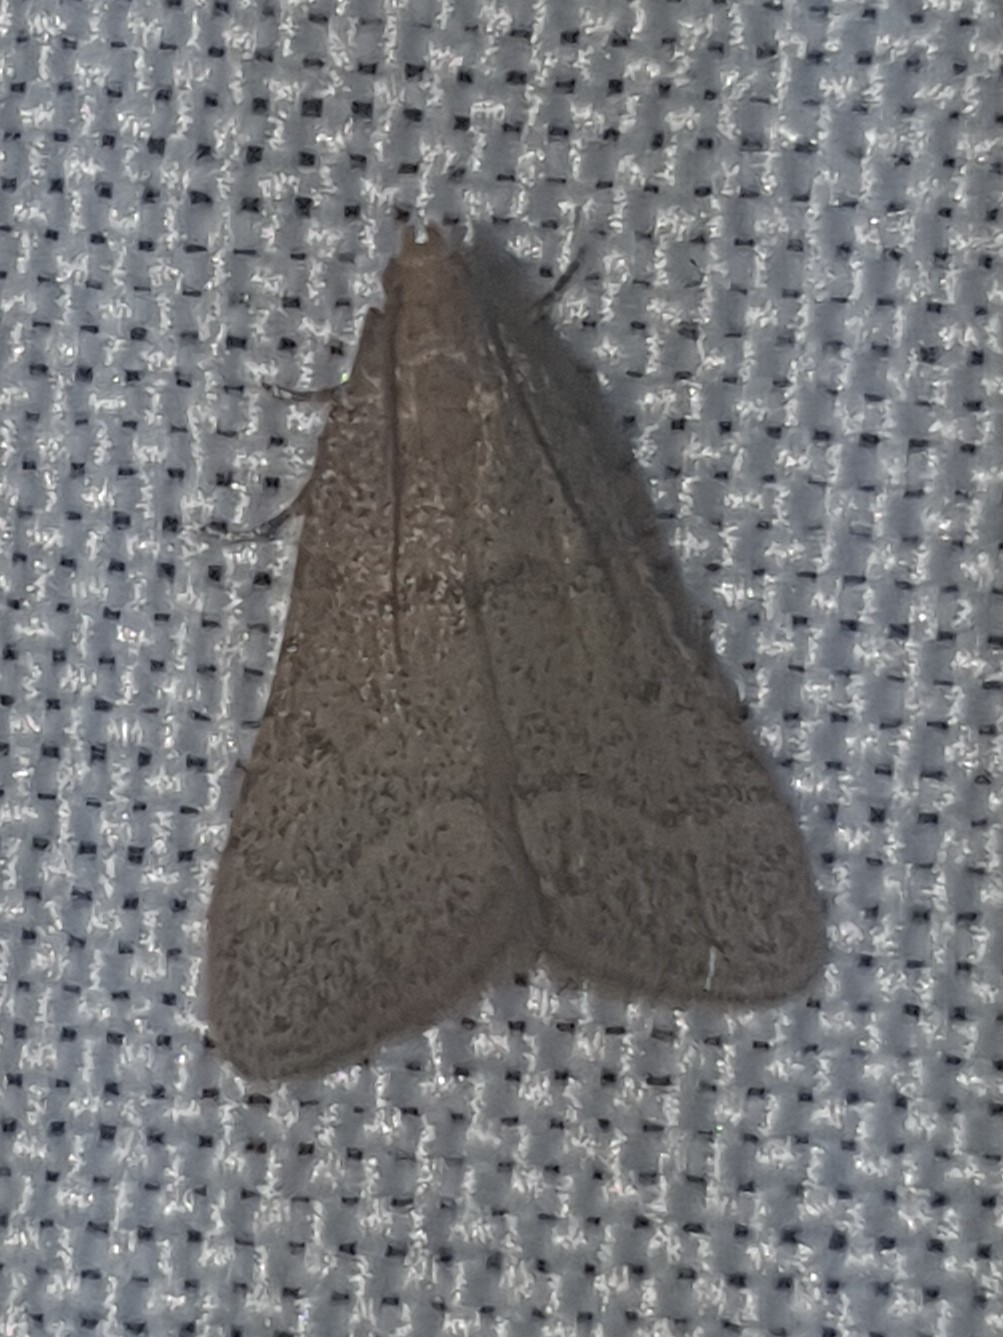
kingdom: Animalia
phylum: Arthropoda
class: Insecta
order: Lepidoptera
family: Pyralidae
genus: Bostra
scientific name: Bostra obsoletalis
